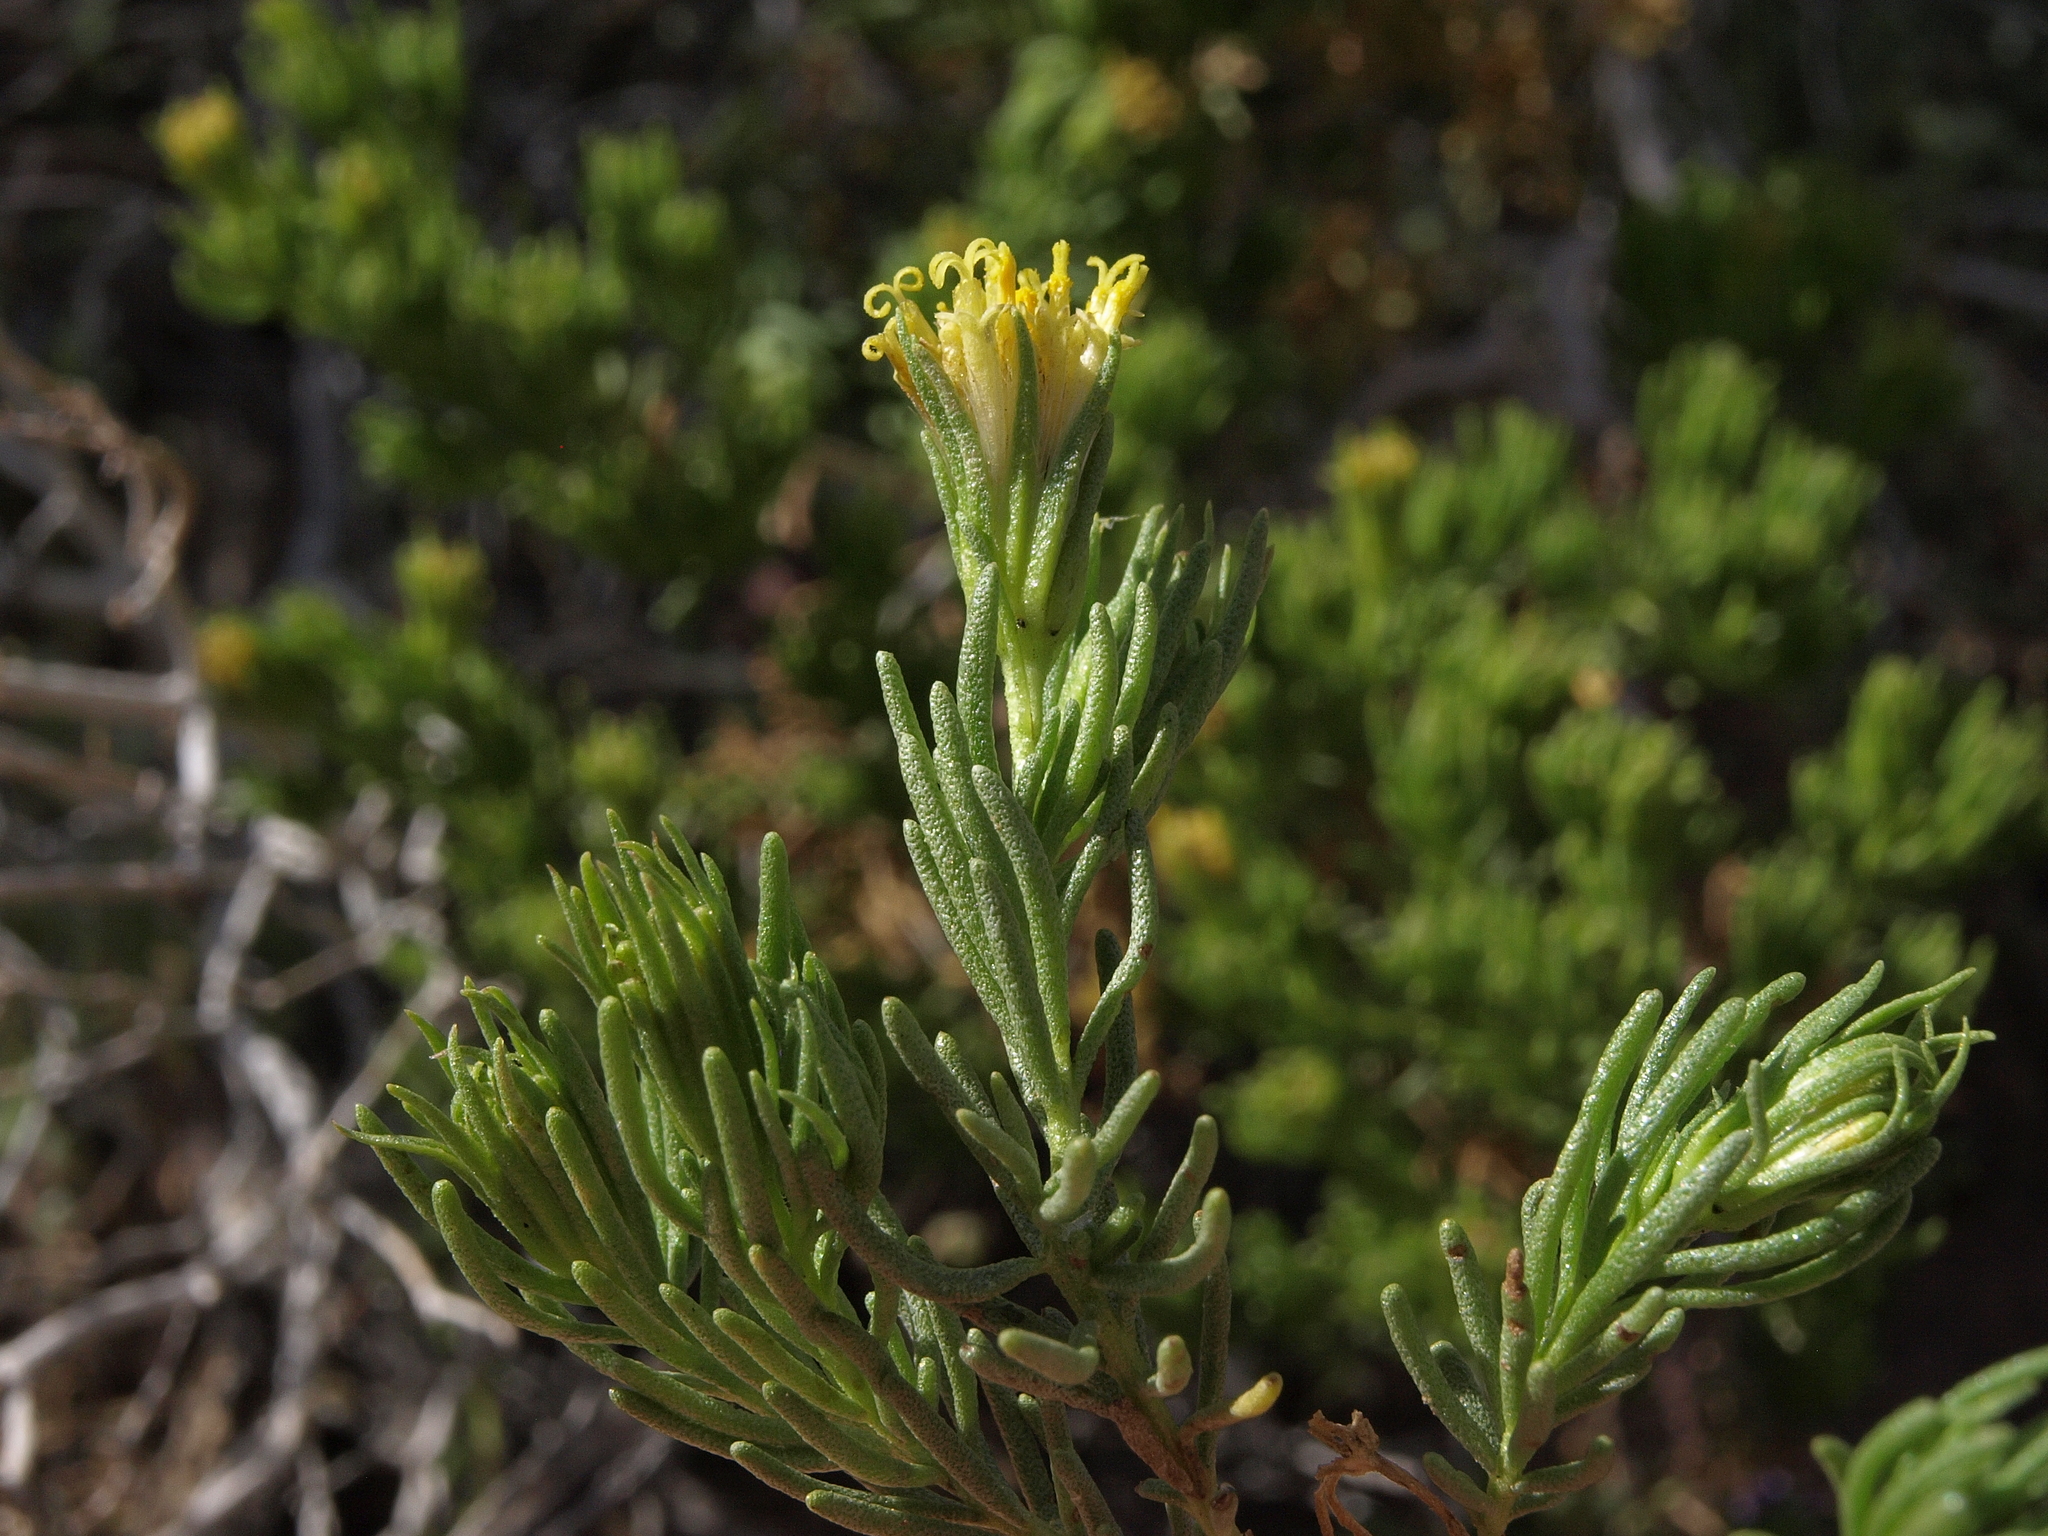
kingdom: Plantae
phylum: Tracheophyta
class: Magnoliopsida
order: Asterales
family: Asteraceae
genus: Peucephyllum
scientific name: Peucephyllum schottii
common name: Pygmy-cedar
